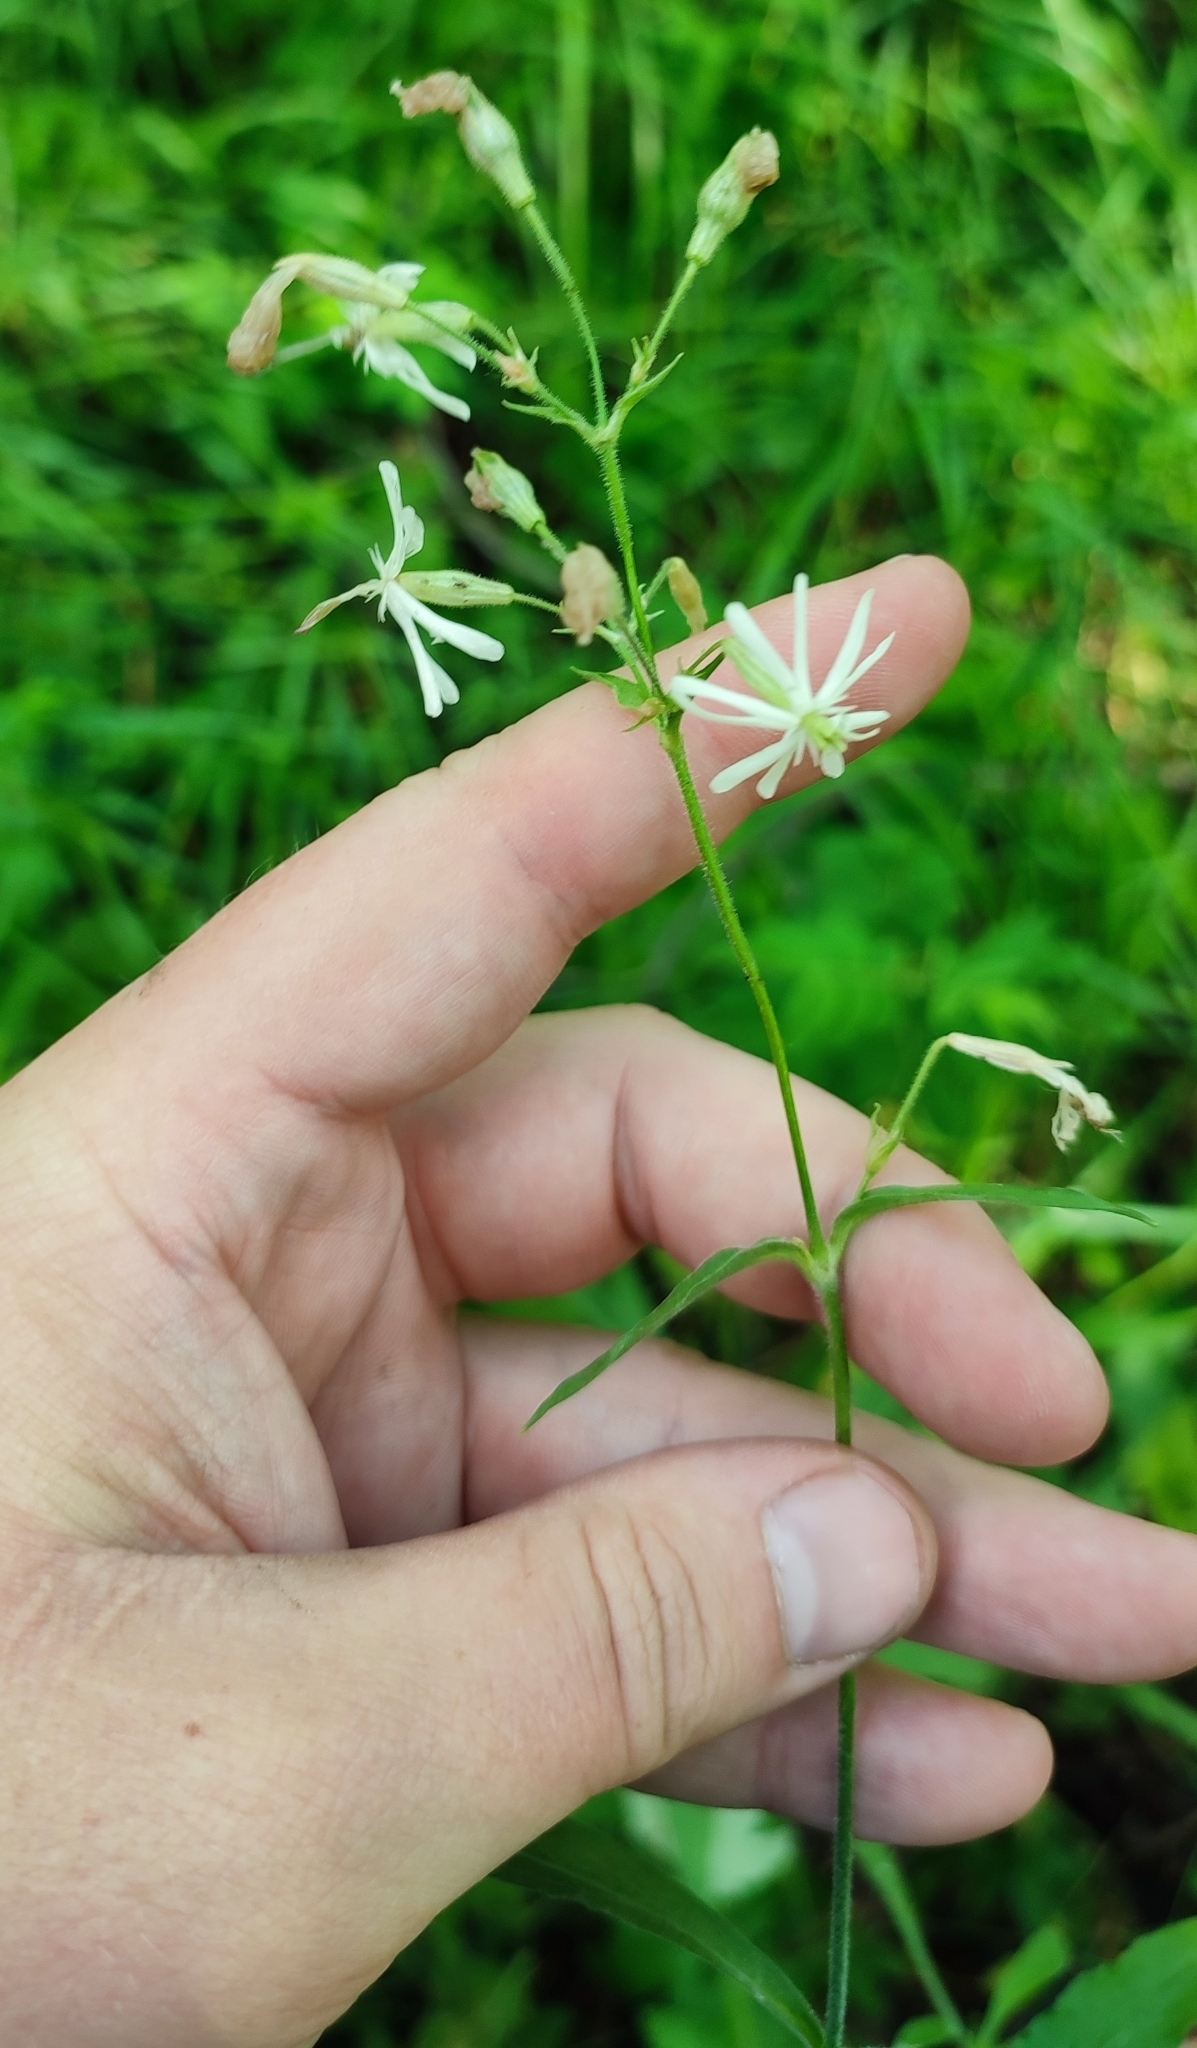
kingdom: Plantae
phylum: Tracheophyta
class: Magnoliopsida
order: Caryophyllales
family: Caryophyllaceae
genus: Silene
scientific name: Silene nutans
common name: Nottingham catchfly
